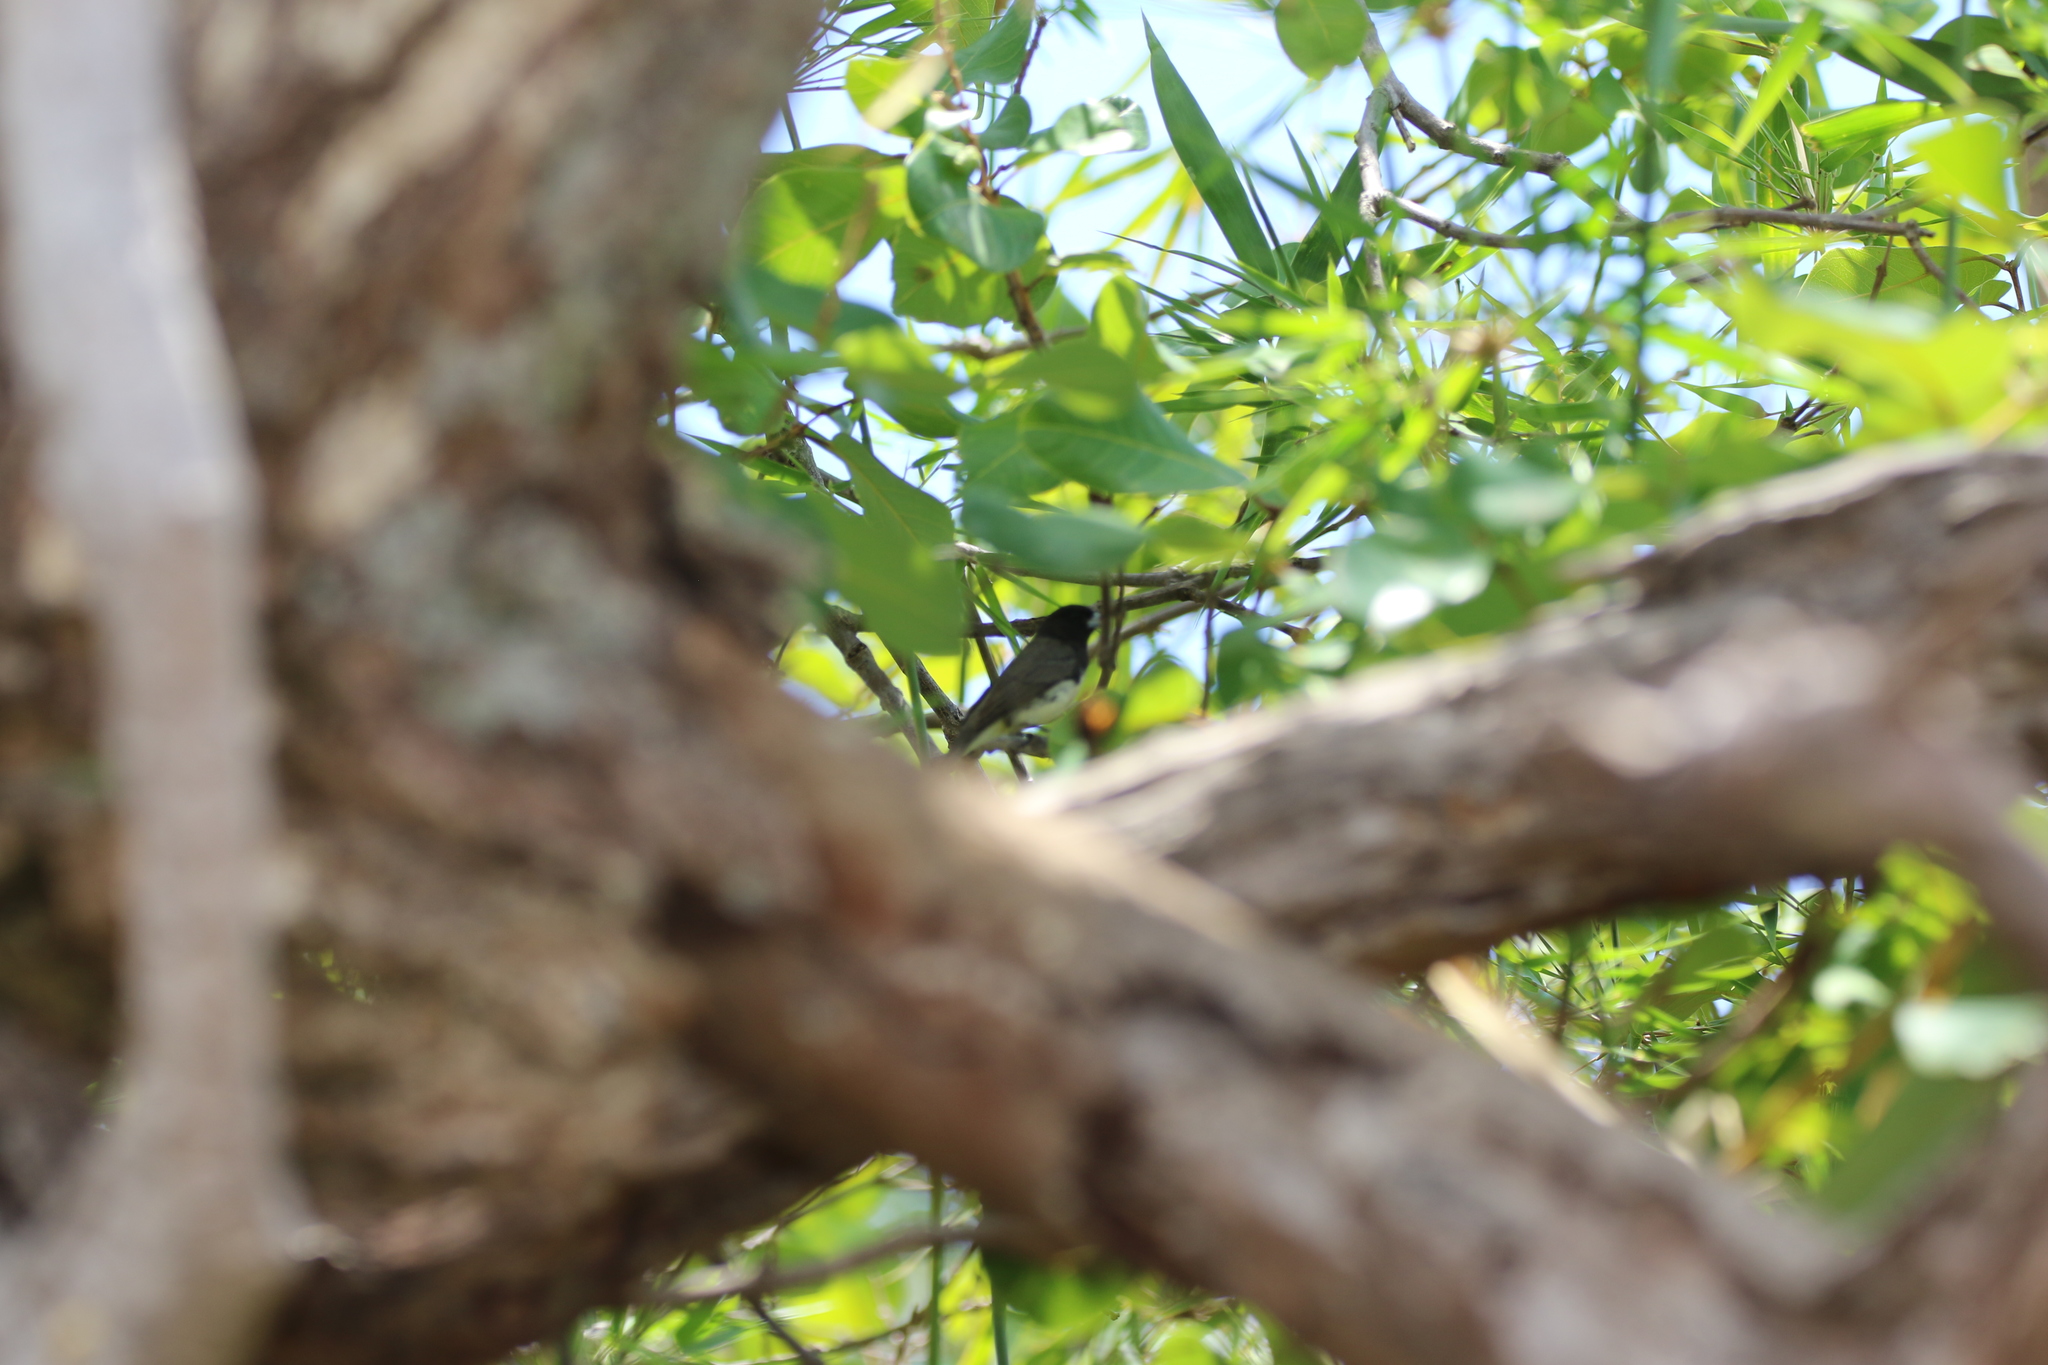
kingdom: Animalia
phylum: Chordata
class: Aves
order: Passeriformes
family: Thraupidae
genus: Sporophila
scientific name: Sporophila nigricollis
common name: Yellow-bellied seedeater
